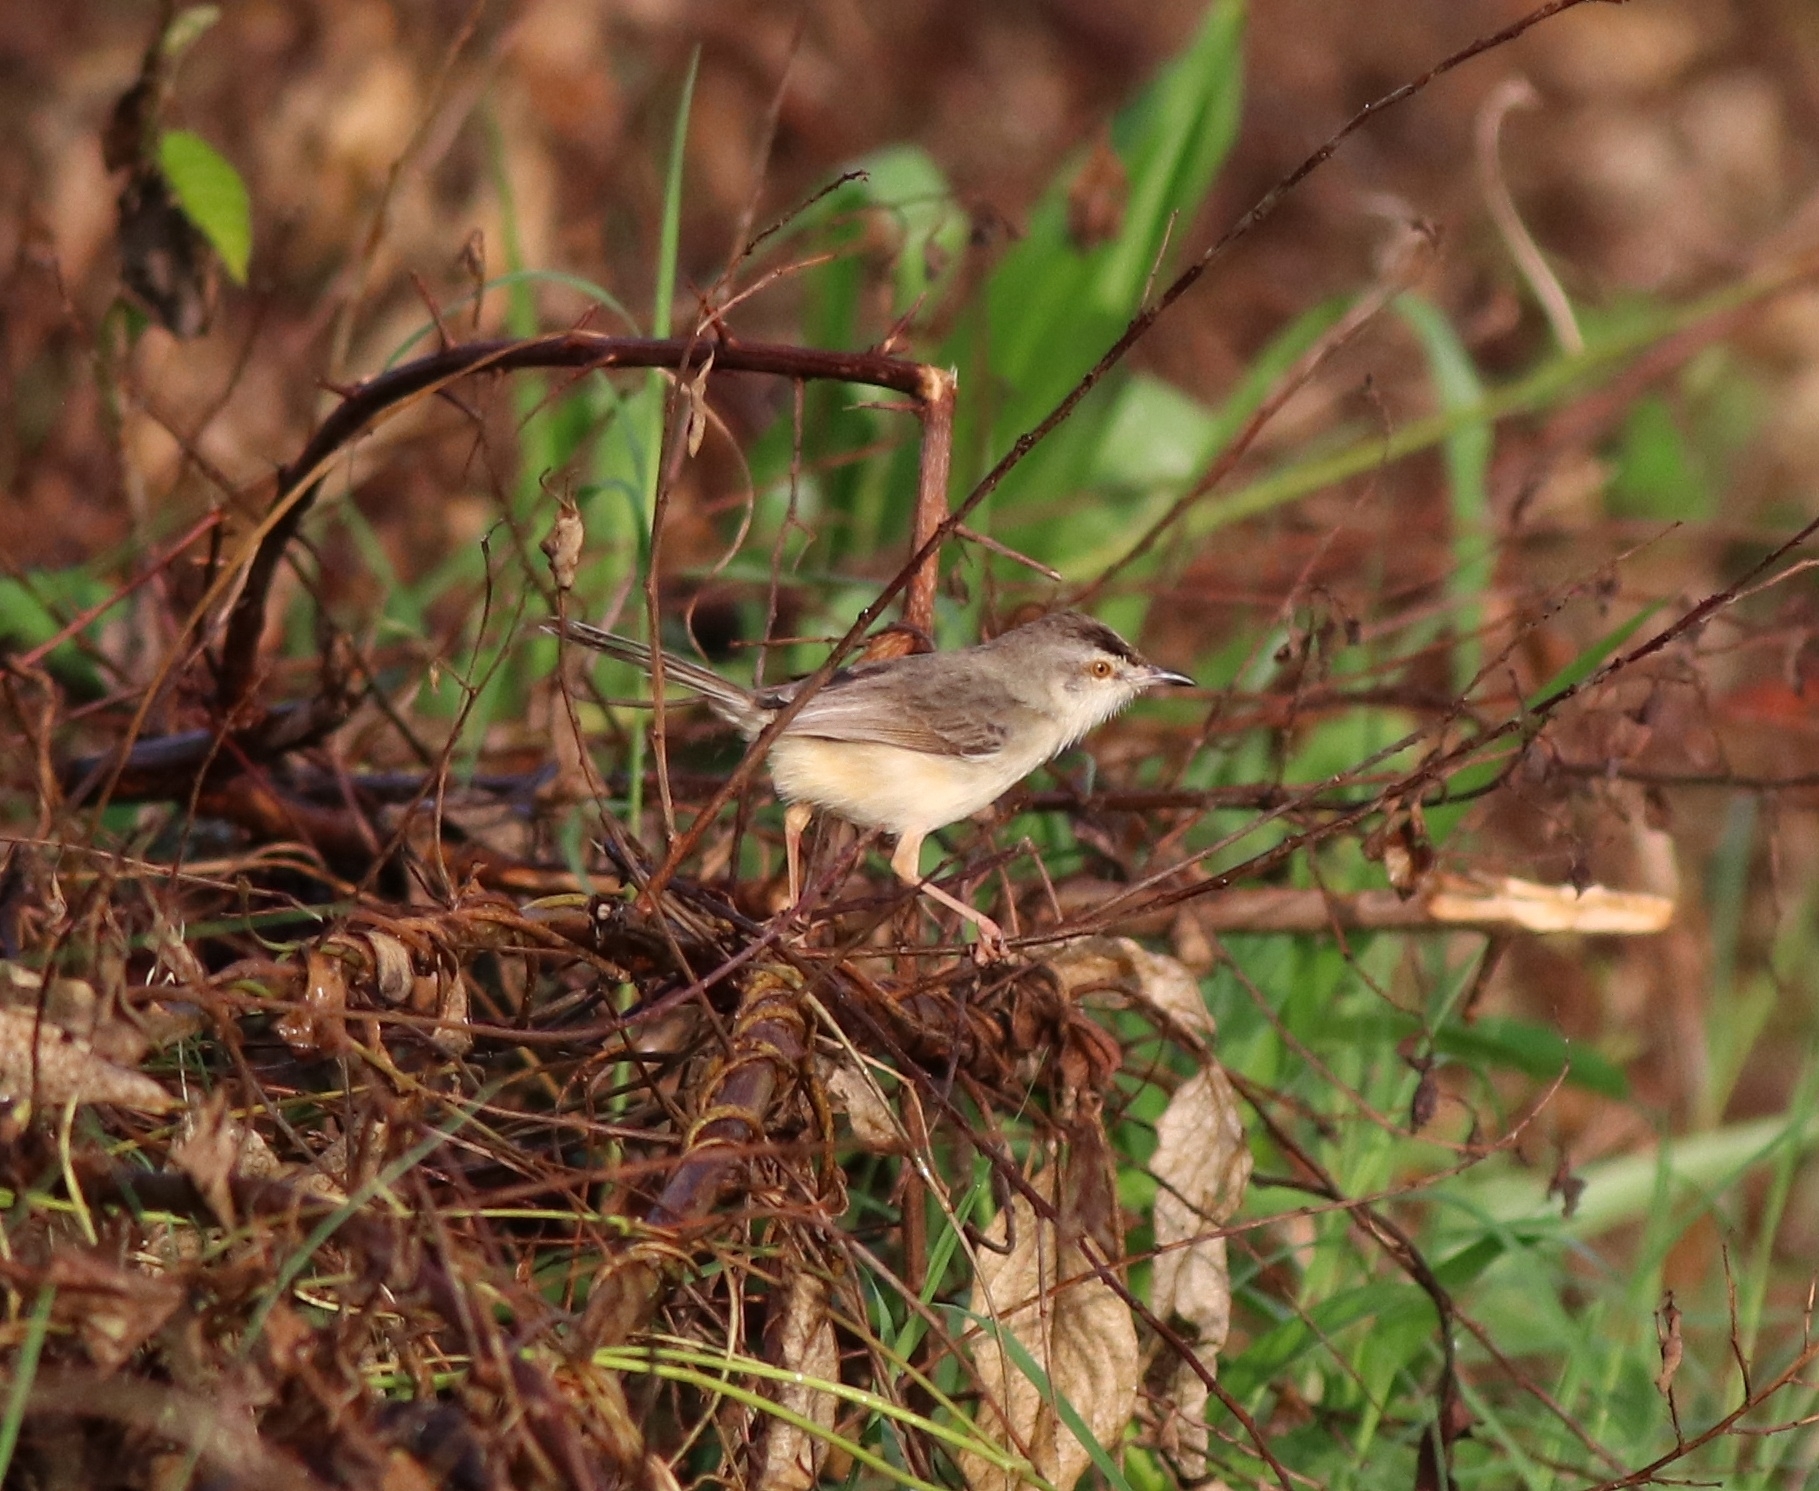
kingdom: Animalia
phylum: Chordata
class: Aves
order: Passeriformes
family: Cisticolidae
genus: Prinia
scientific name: Prinia inornata
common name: Plain prinia
